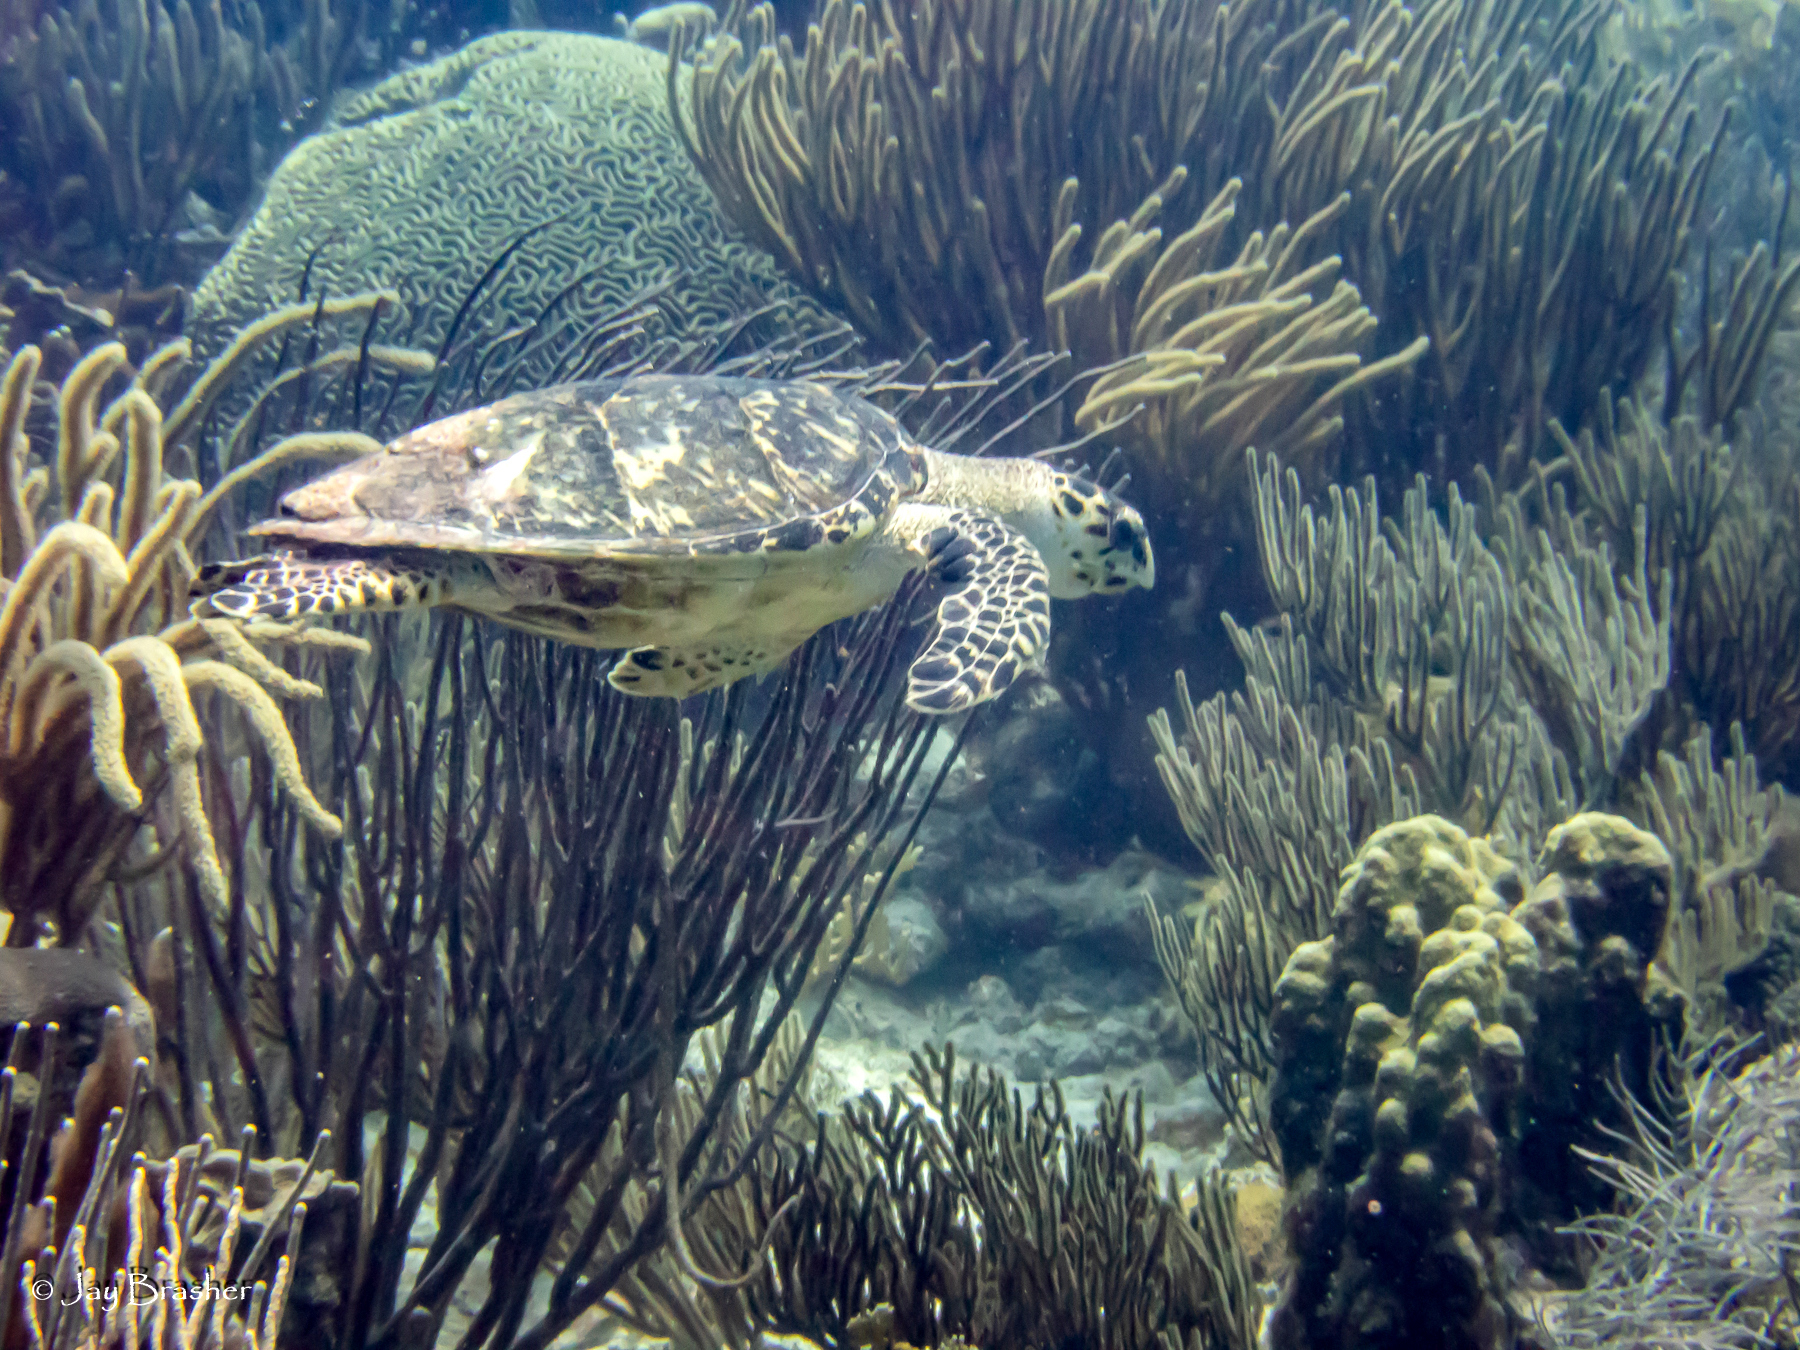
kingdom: Animalia
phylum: Chordata
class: Testudines
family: Cheloniidae
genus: Eretmochelys
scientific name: Eretmochelys imbricata
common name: Hawksbill turtle
